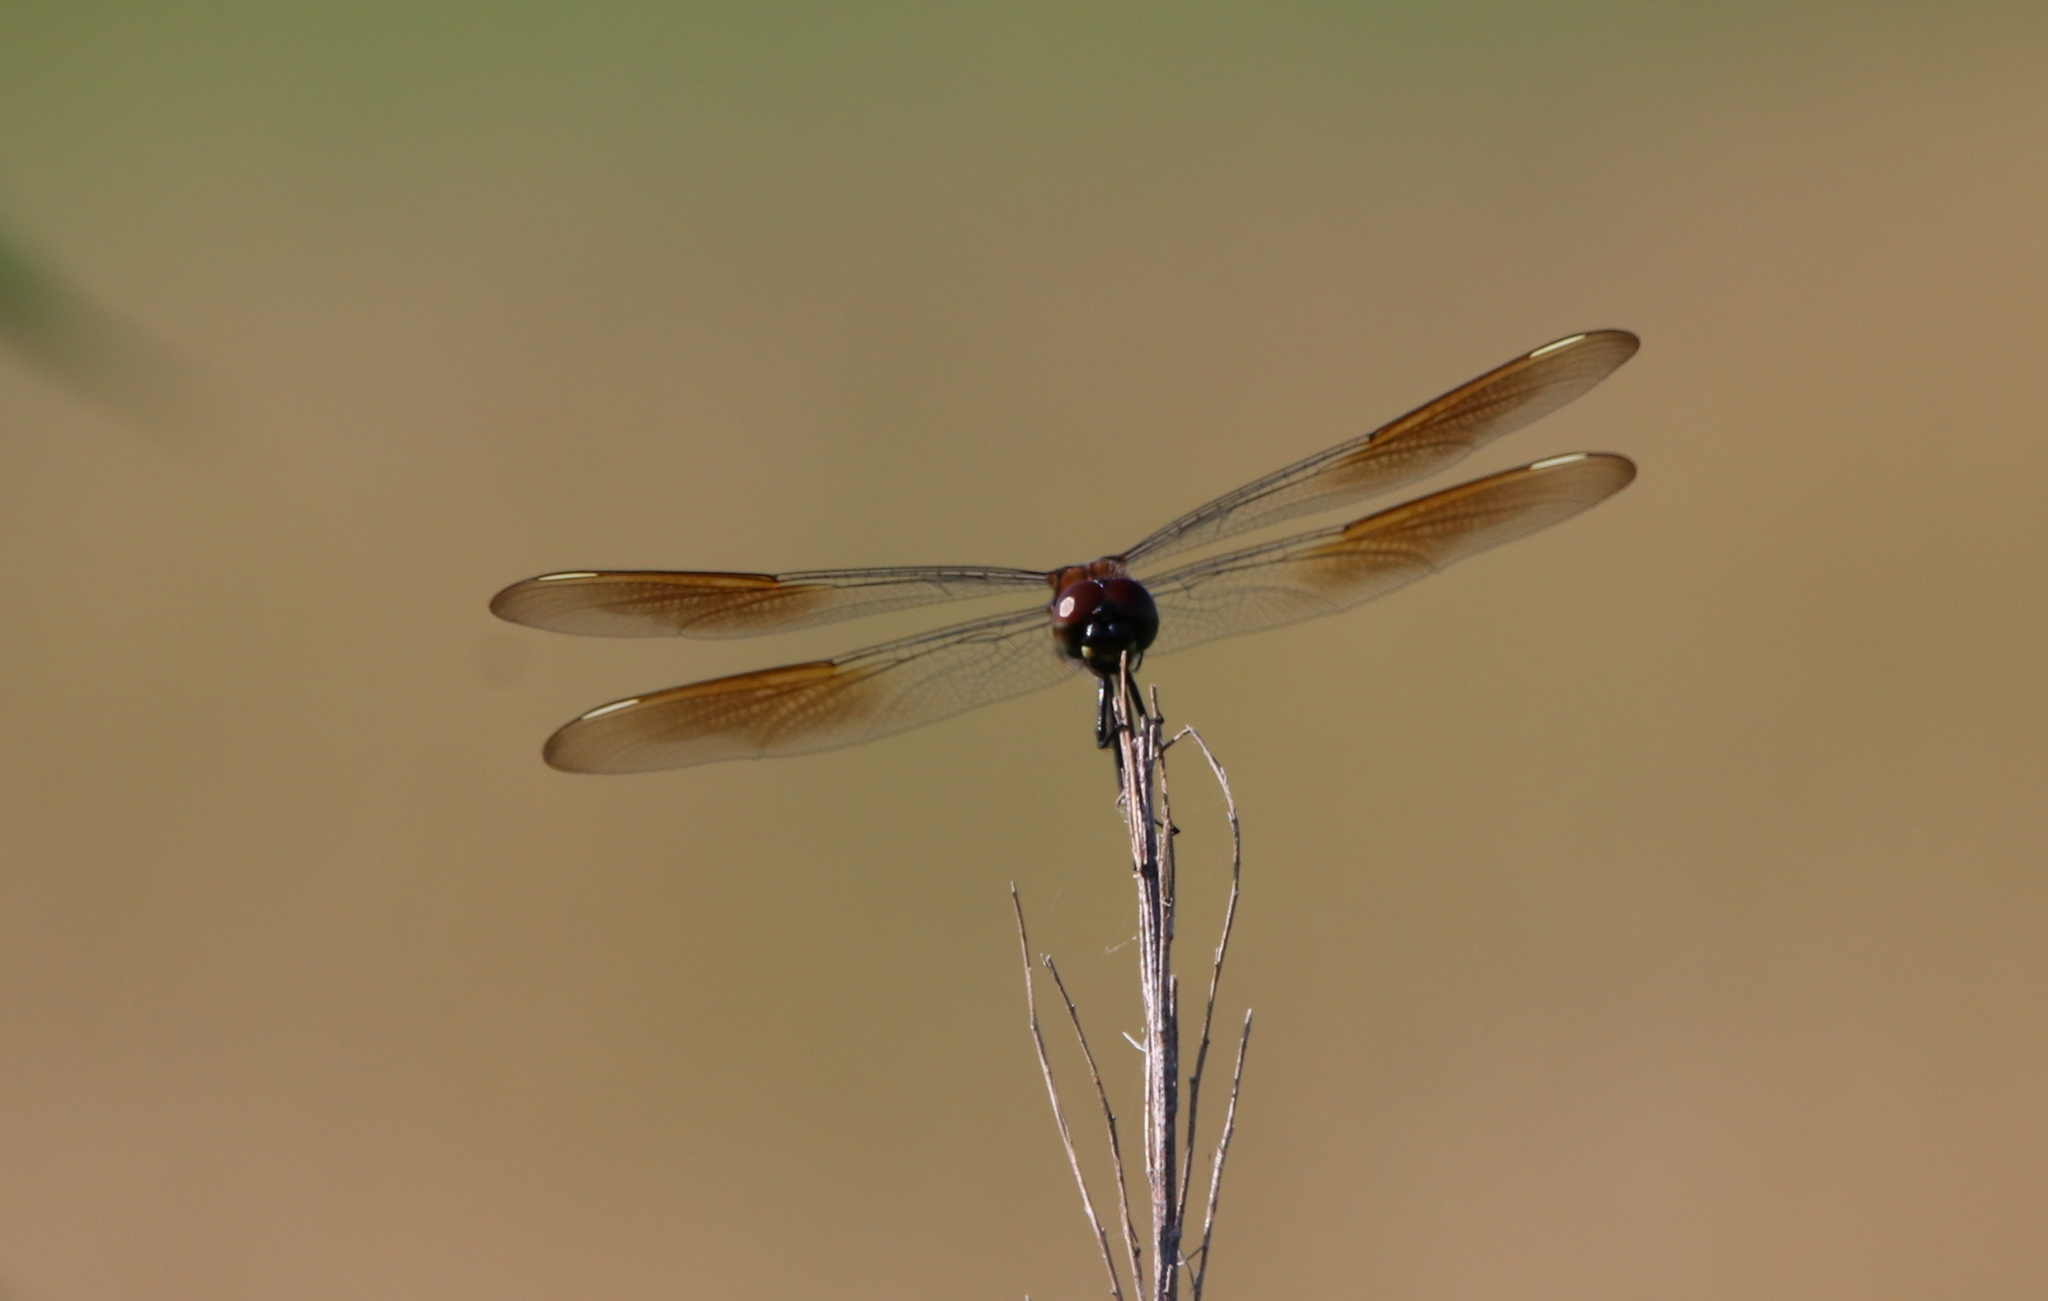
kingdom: Animalia
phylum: Arthropoda
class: Insecta
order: Odonata
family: Libellulidae
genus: Brachymesia
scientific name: Brachymesia gravida
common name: Four-spotted pennant
